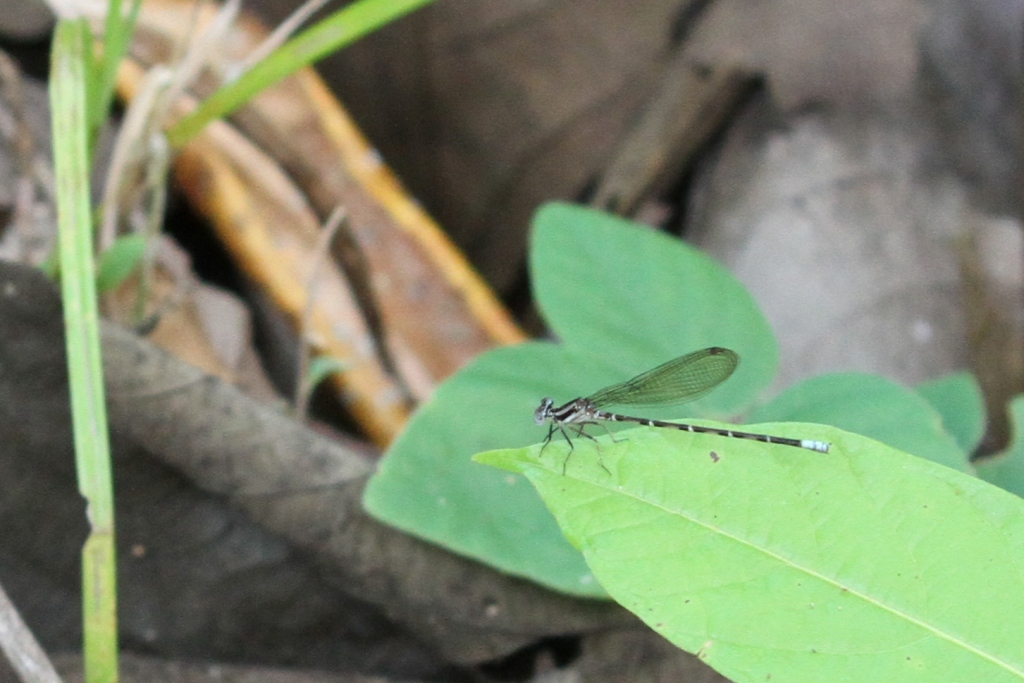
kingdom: Animalia
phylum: Arthropoda
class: Insecta
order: Odonata
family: Coenagrionidae
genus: Argia
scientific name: Argia pulla
